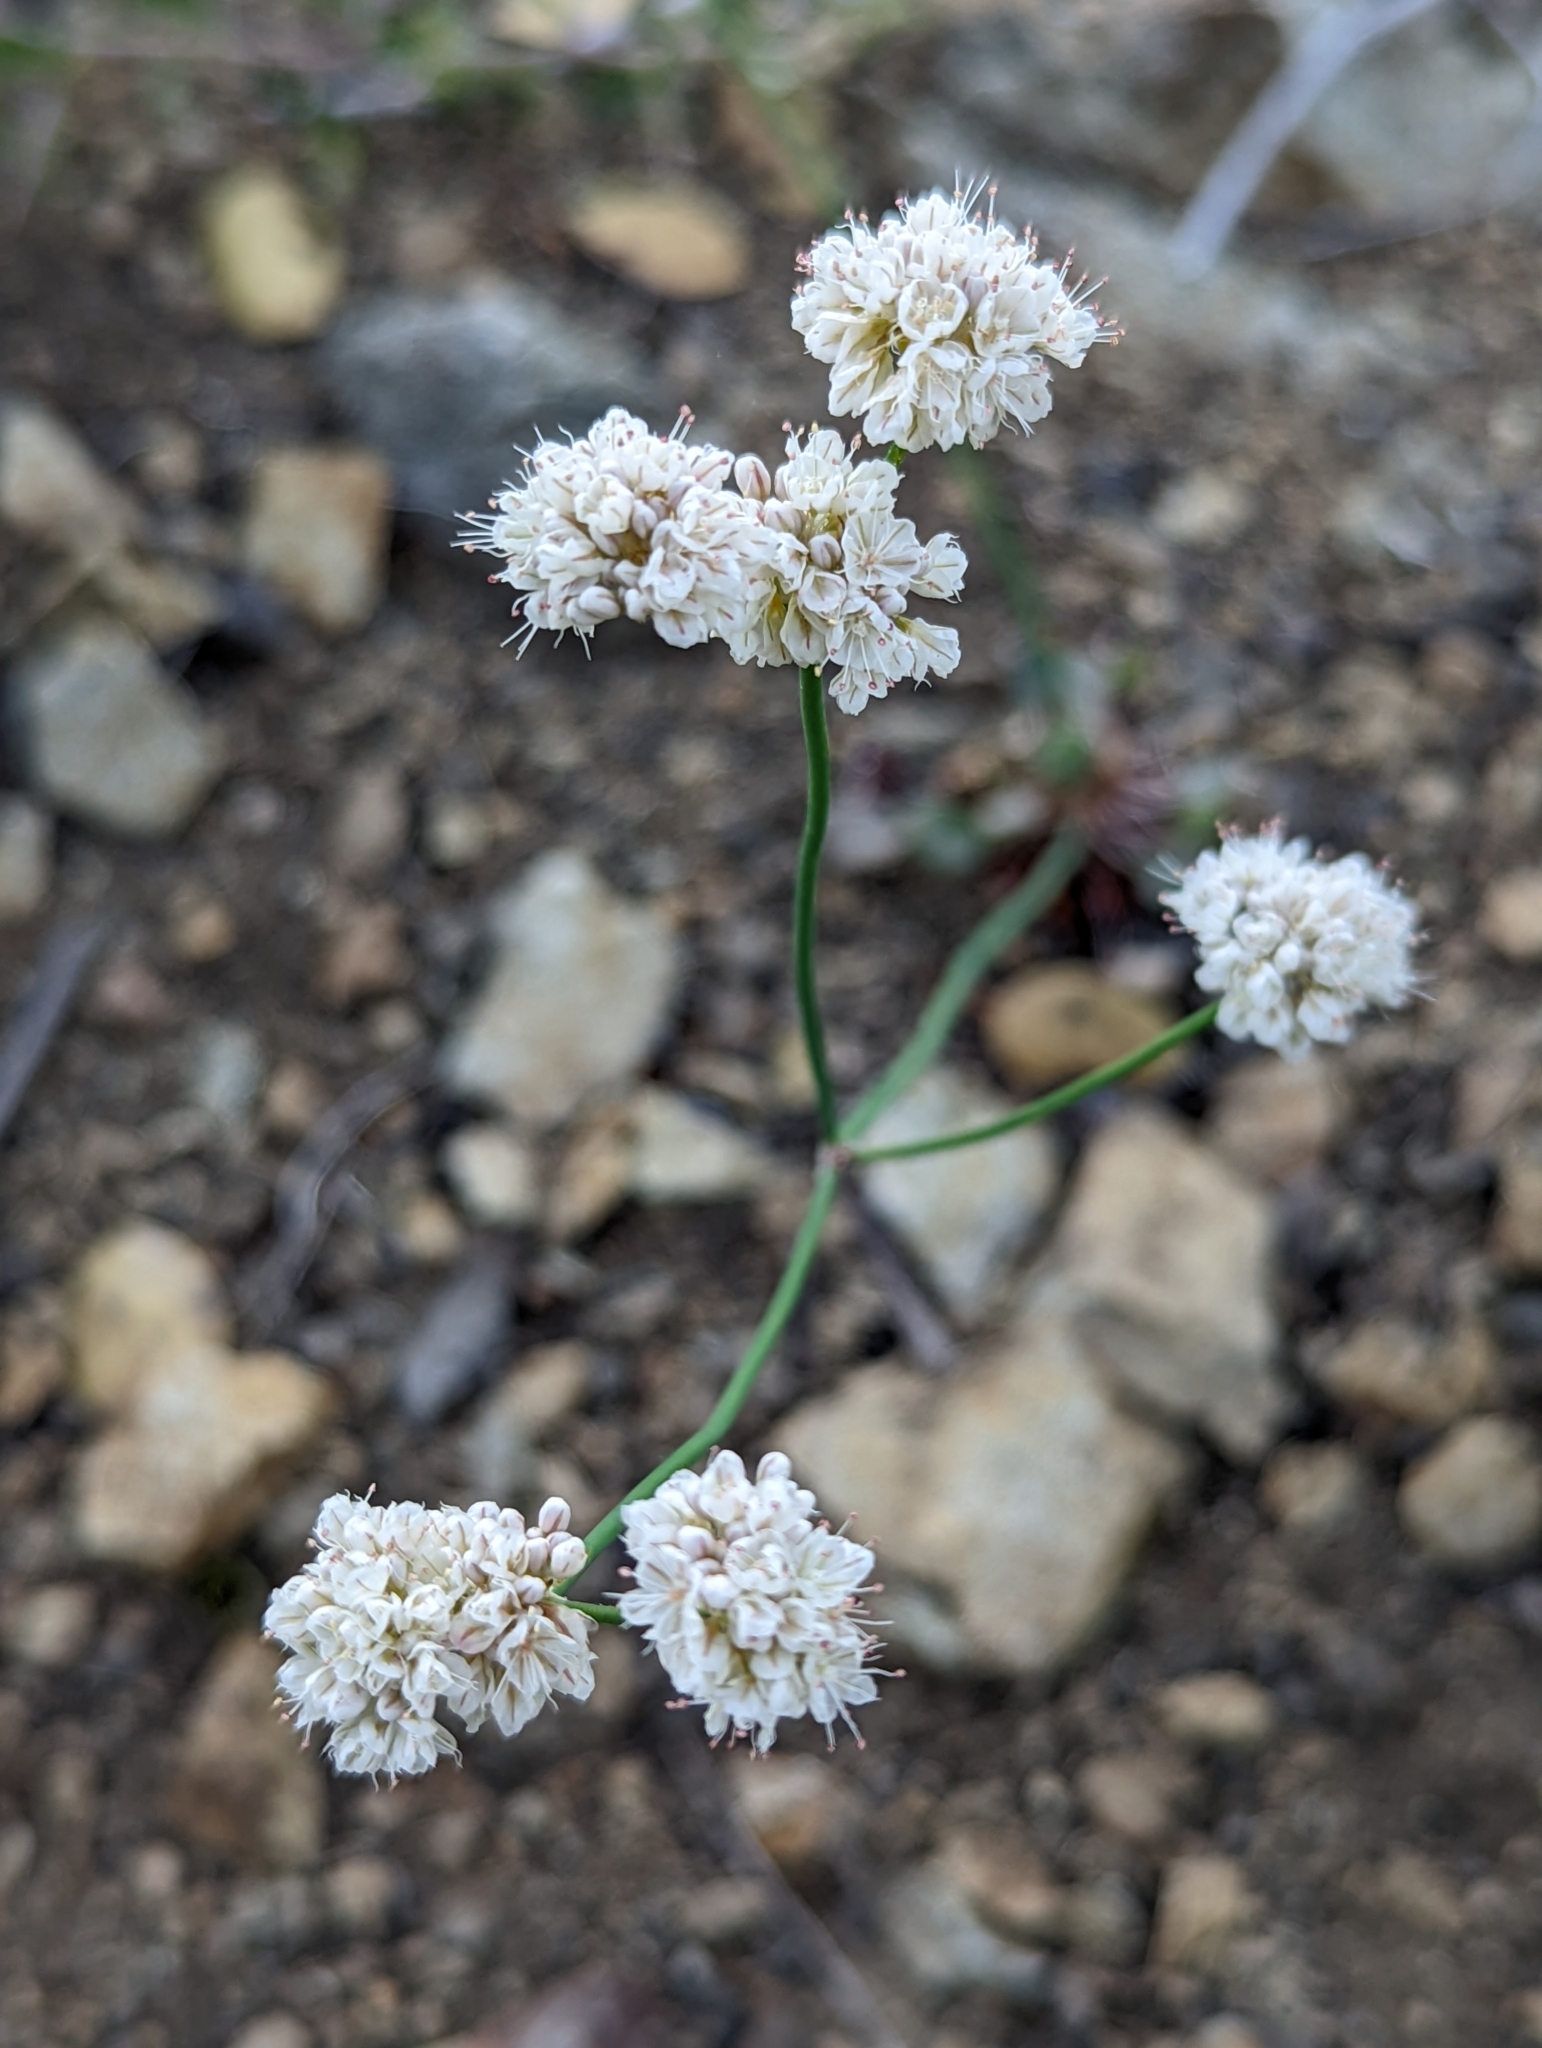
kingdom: Plantae
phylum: Tracheophyta
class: Magnoliopsida
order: Caryophyllales
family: Polygonaceae
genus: Eriogonum
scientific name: Eriogonum nudum
